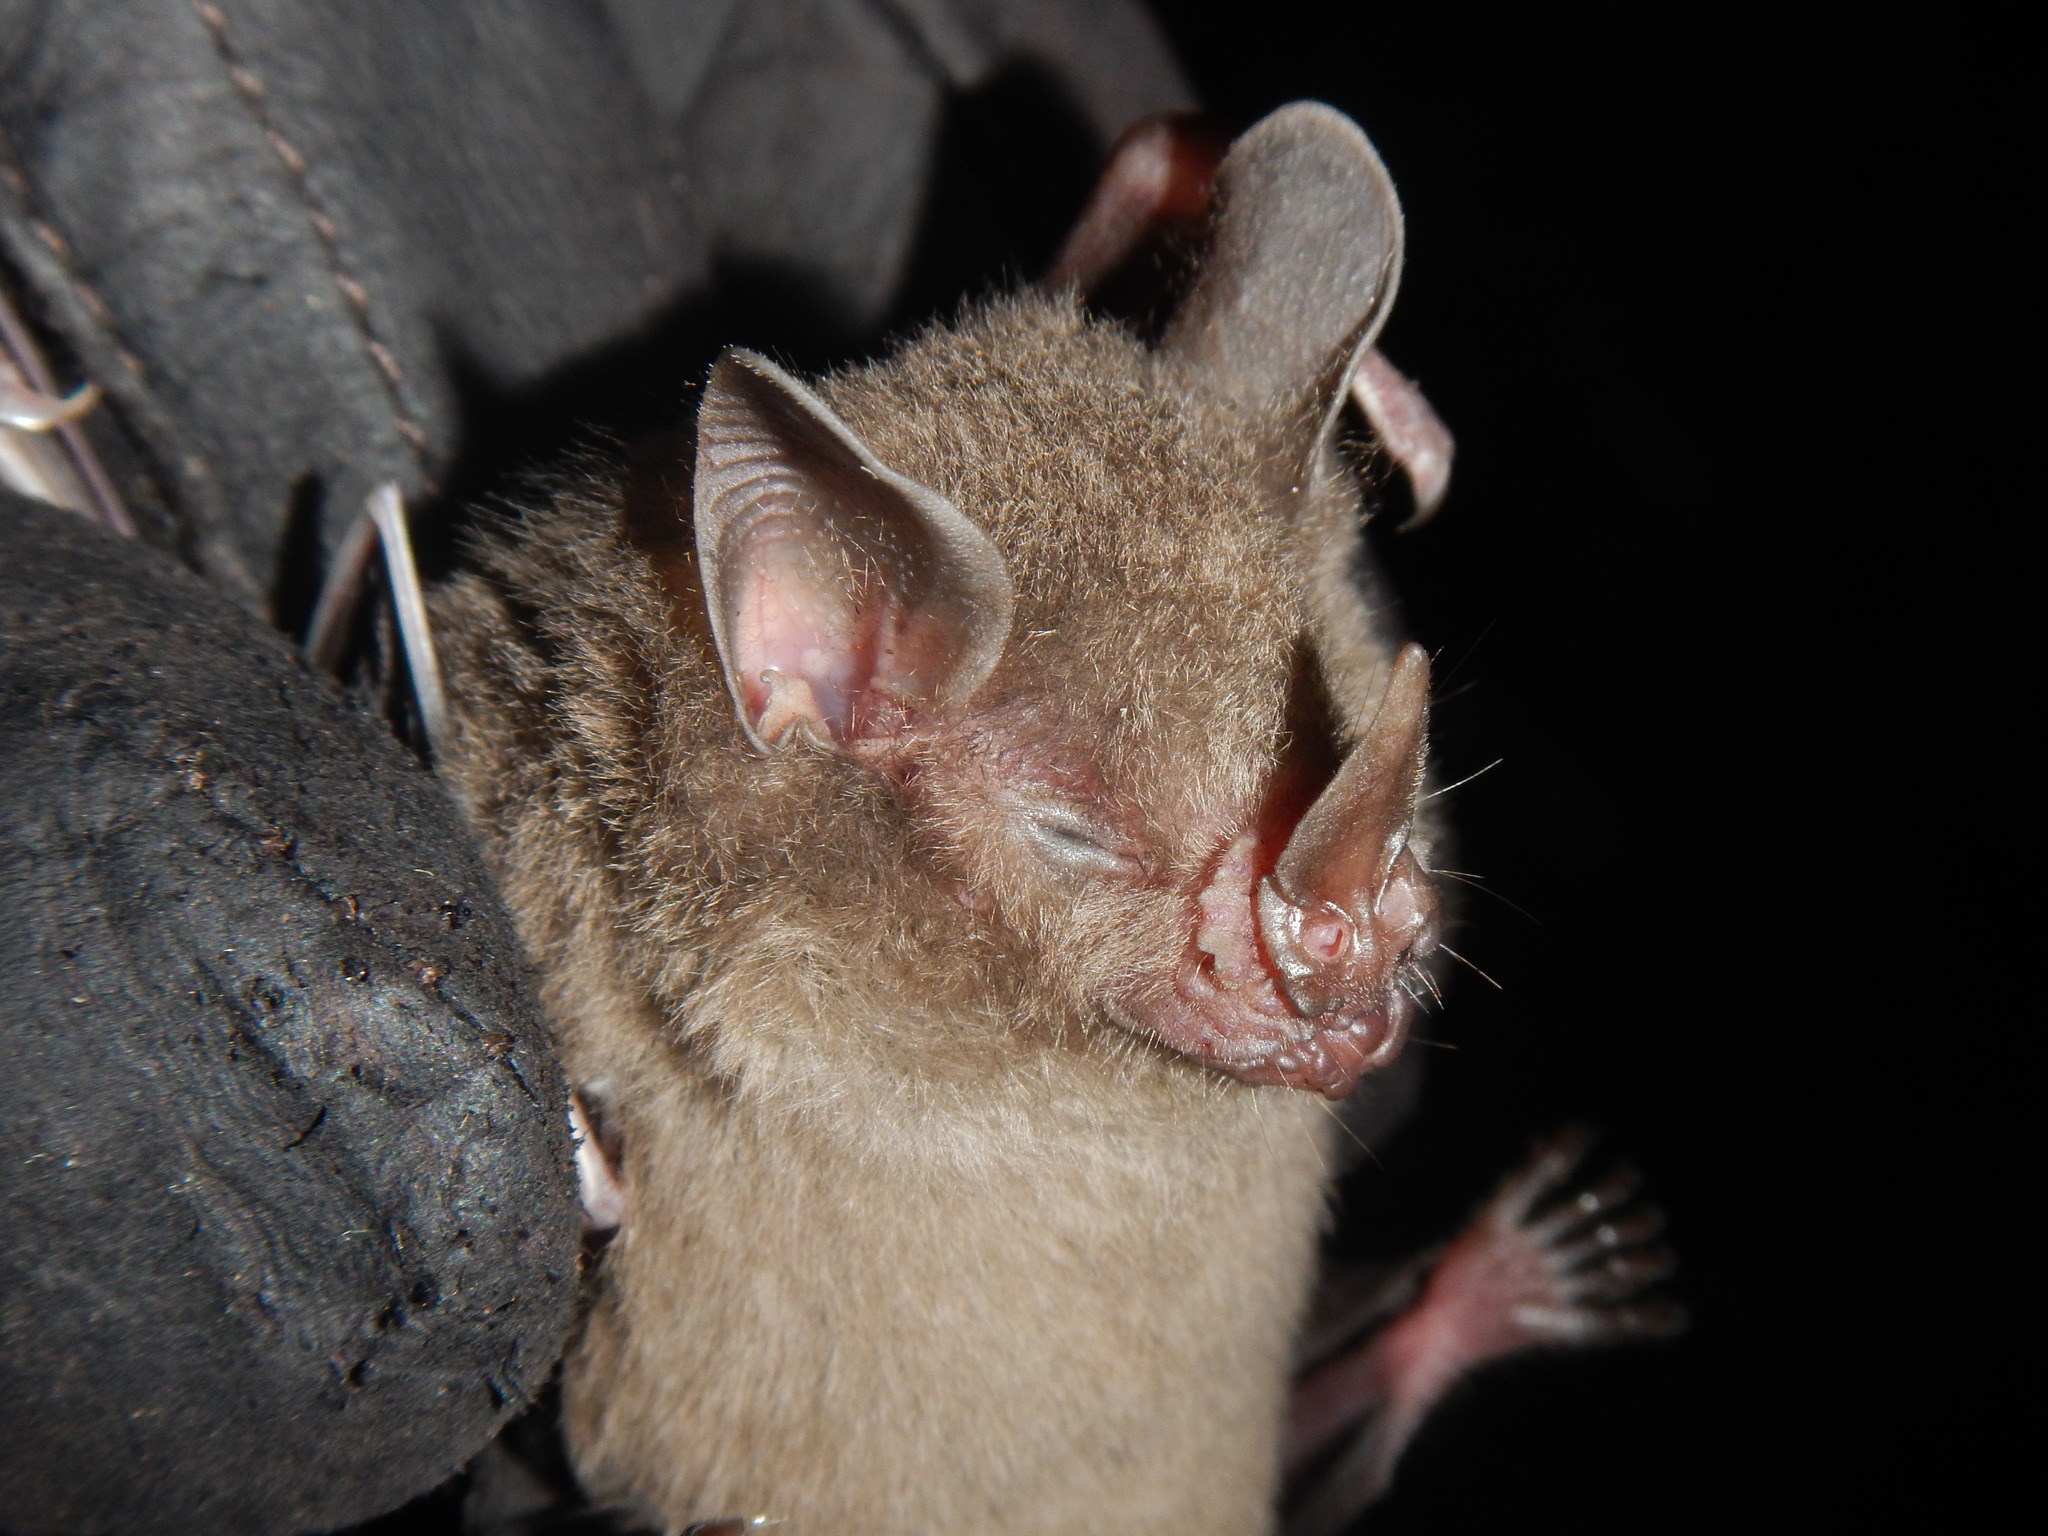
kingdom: Animalia
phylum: Chordata
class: Mammalia
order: Chiroptera
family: Phyllostomidae
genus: Rhinophylla
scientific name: Rhinophylla pumilio
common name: Dwarf little fruit bat
